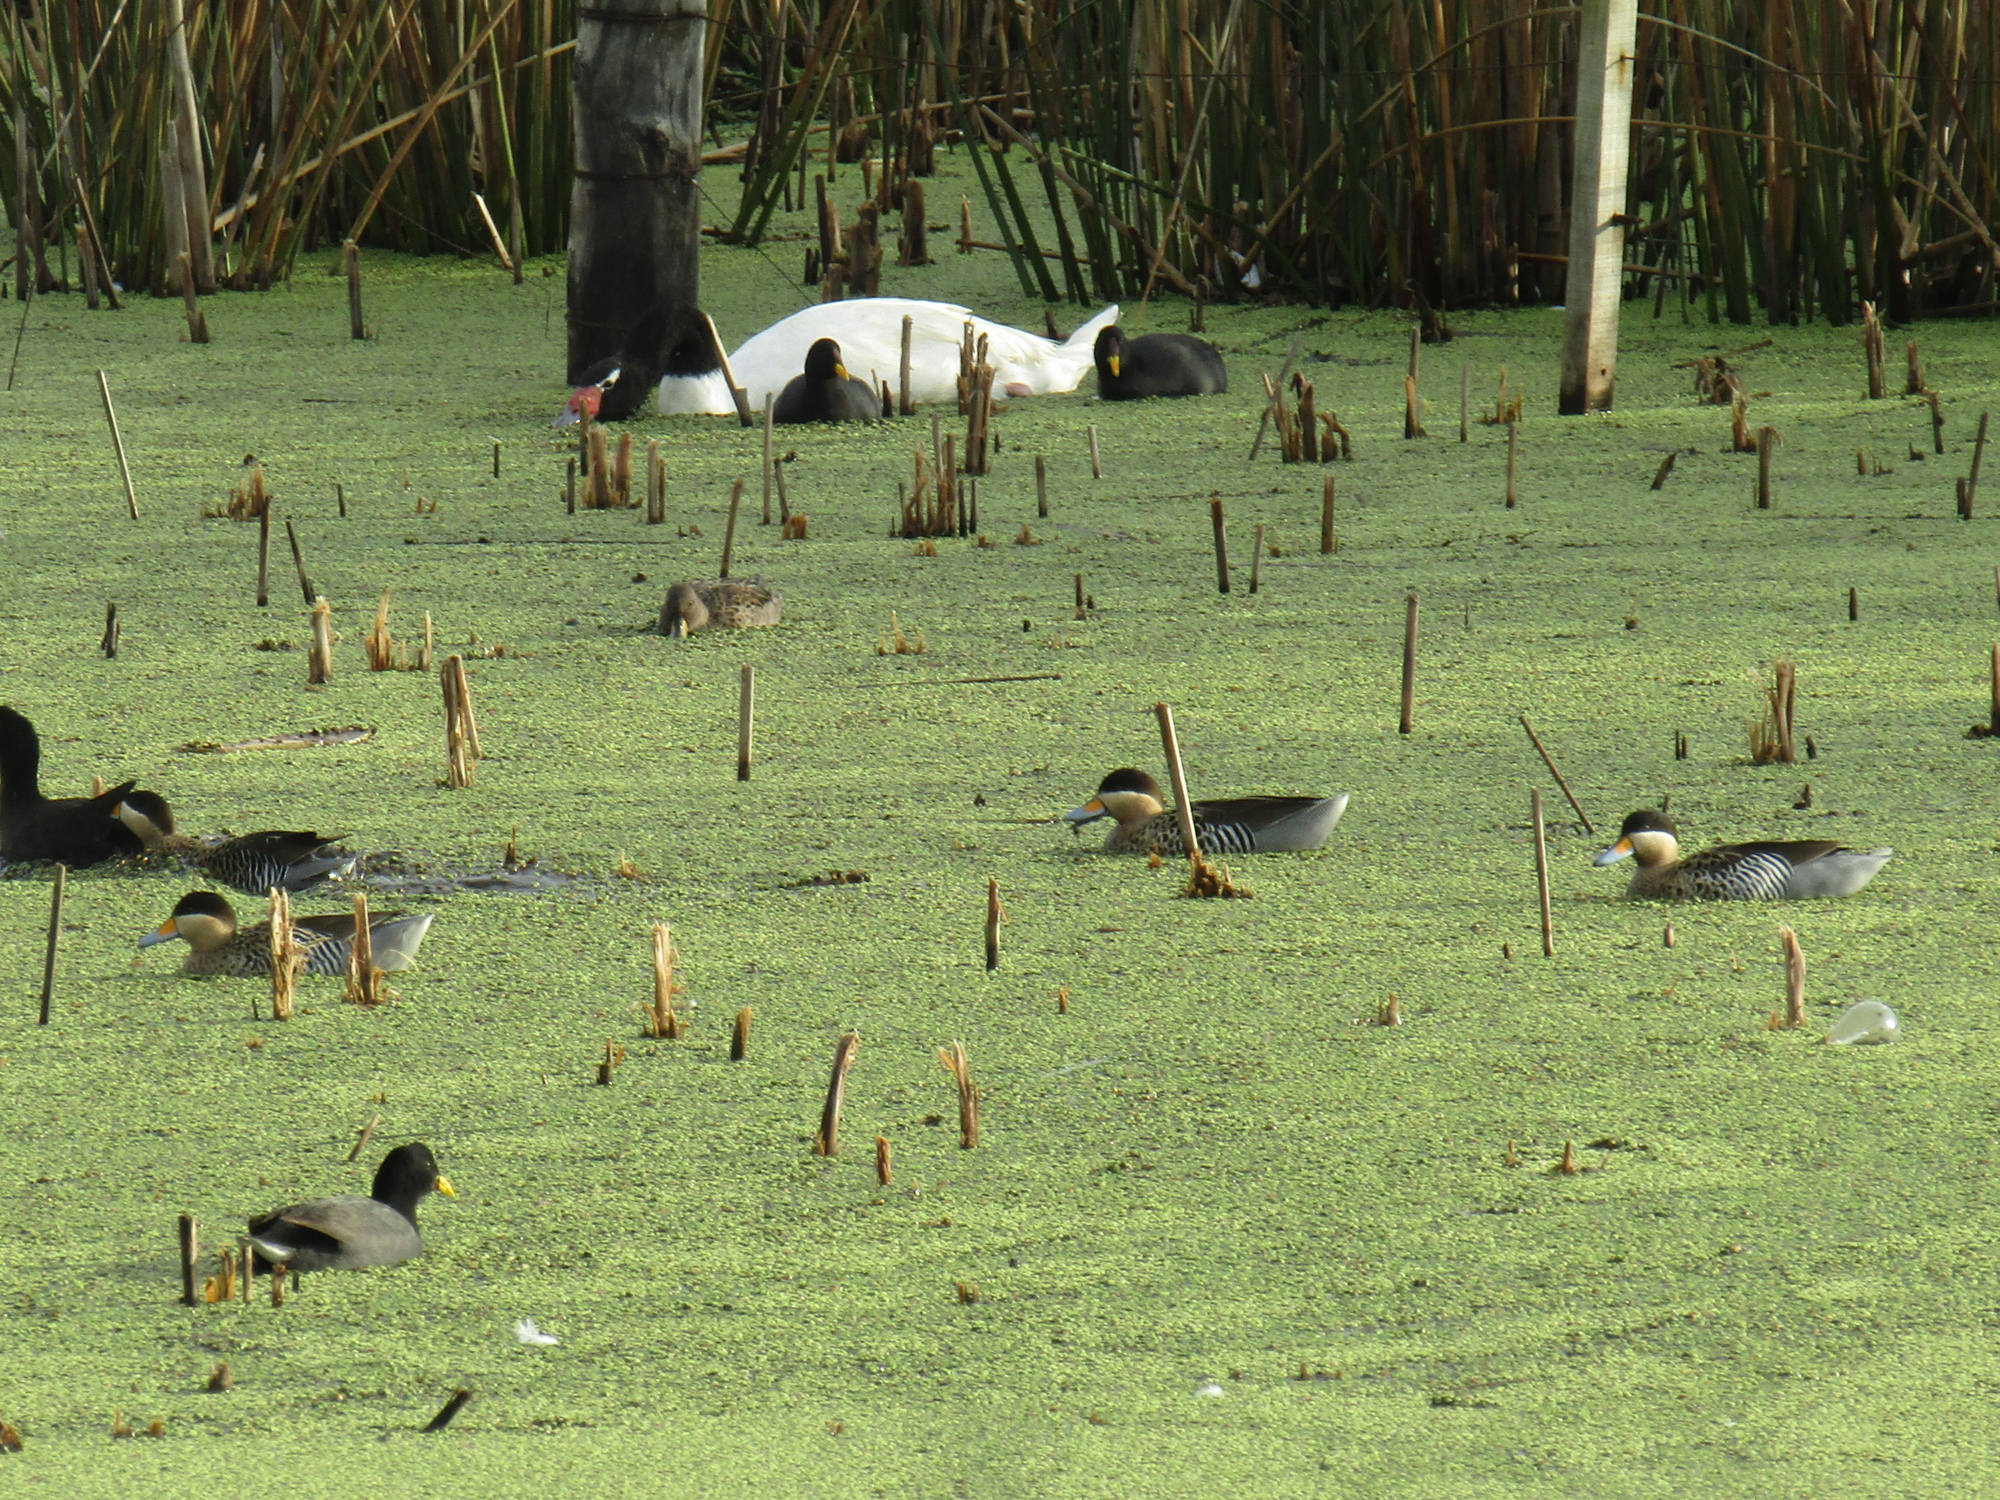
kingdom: Animalia
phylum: Chordata
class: Aves
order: Anseriformes
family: Anatidae
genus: Spatula
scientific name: Spatula versicolor
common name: Silver teal
